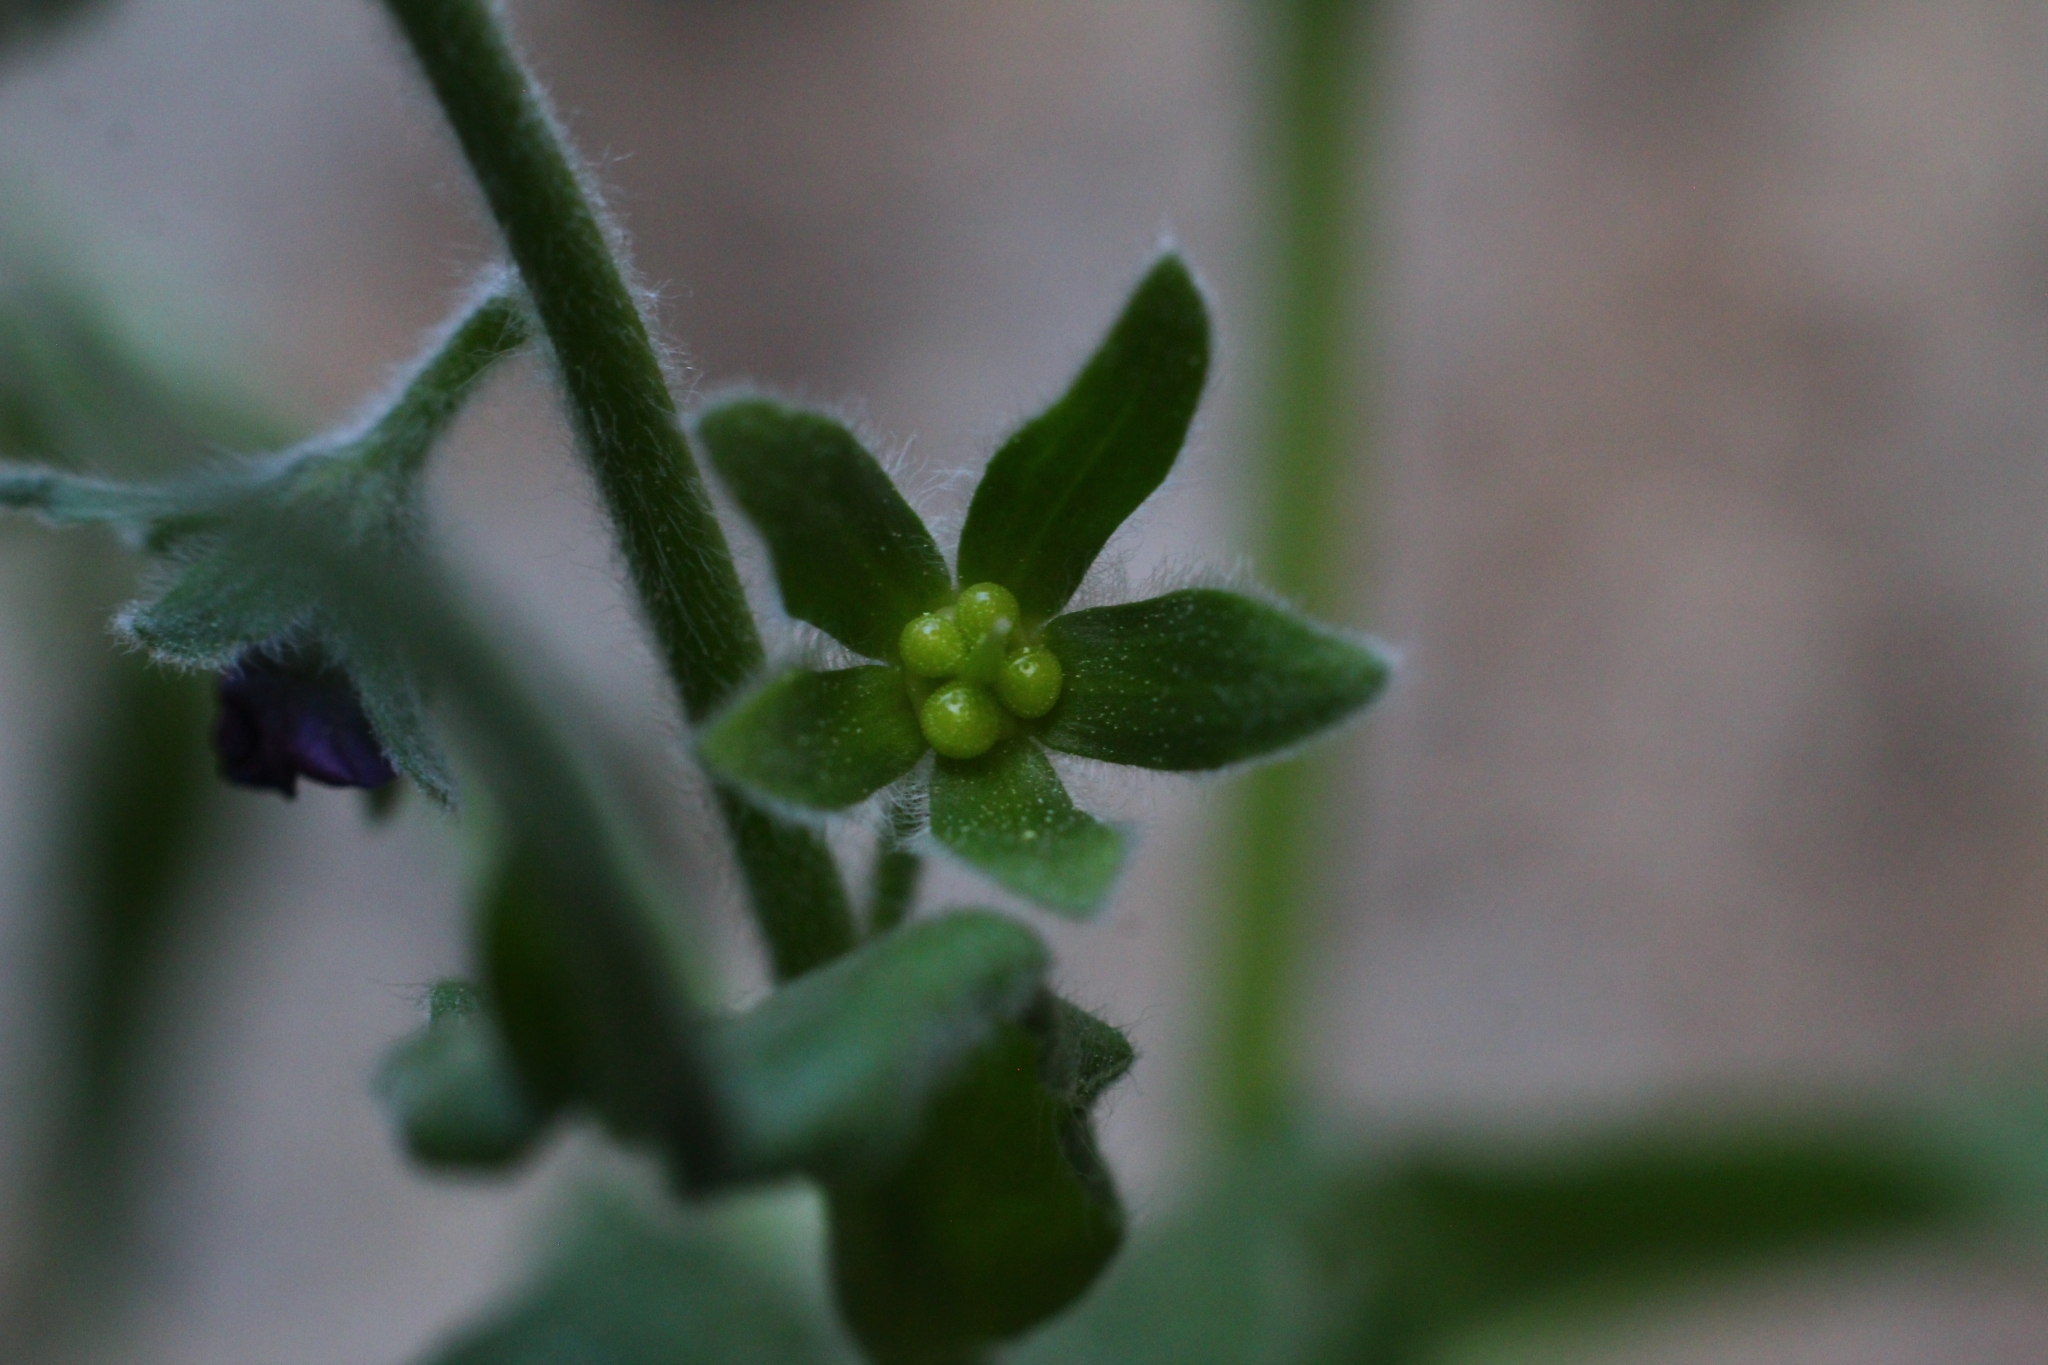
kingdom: Plantae
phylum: Tracheophyta
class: Magnoliopsida
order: Boraginales
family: Boraginaceae
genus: Cynoglossum
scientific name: Cynoglossum officinale
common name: Hound's-tongue
